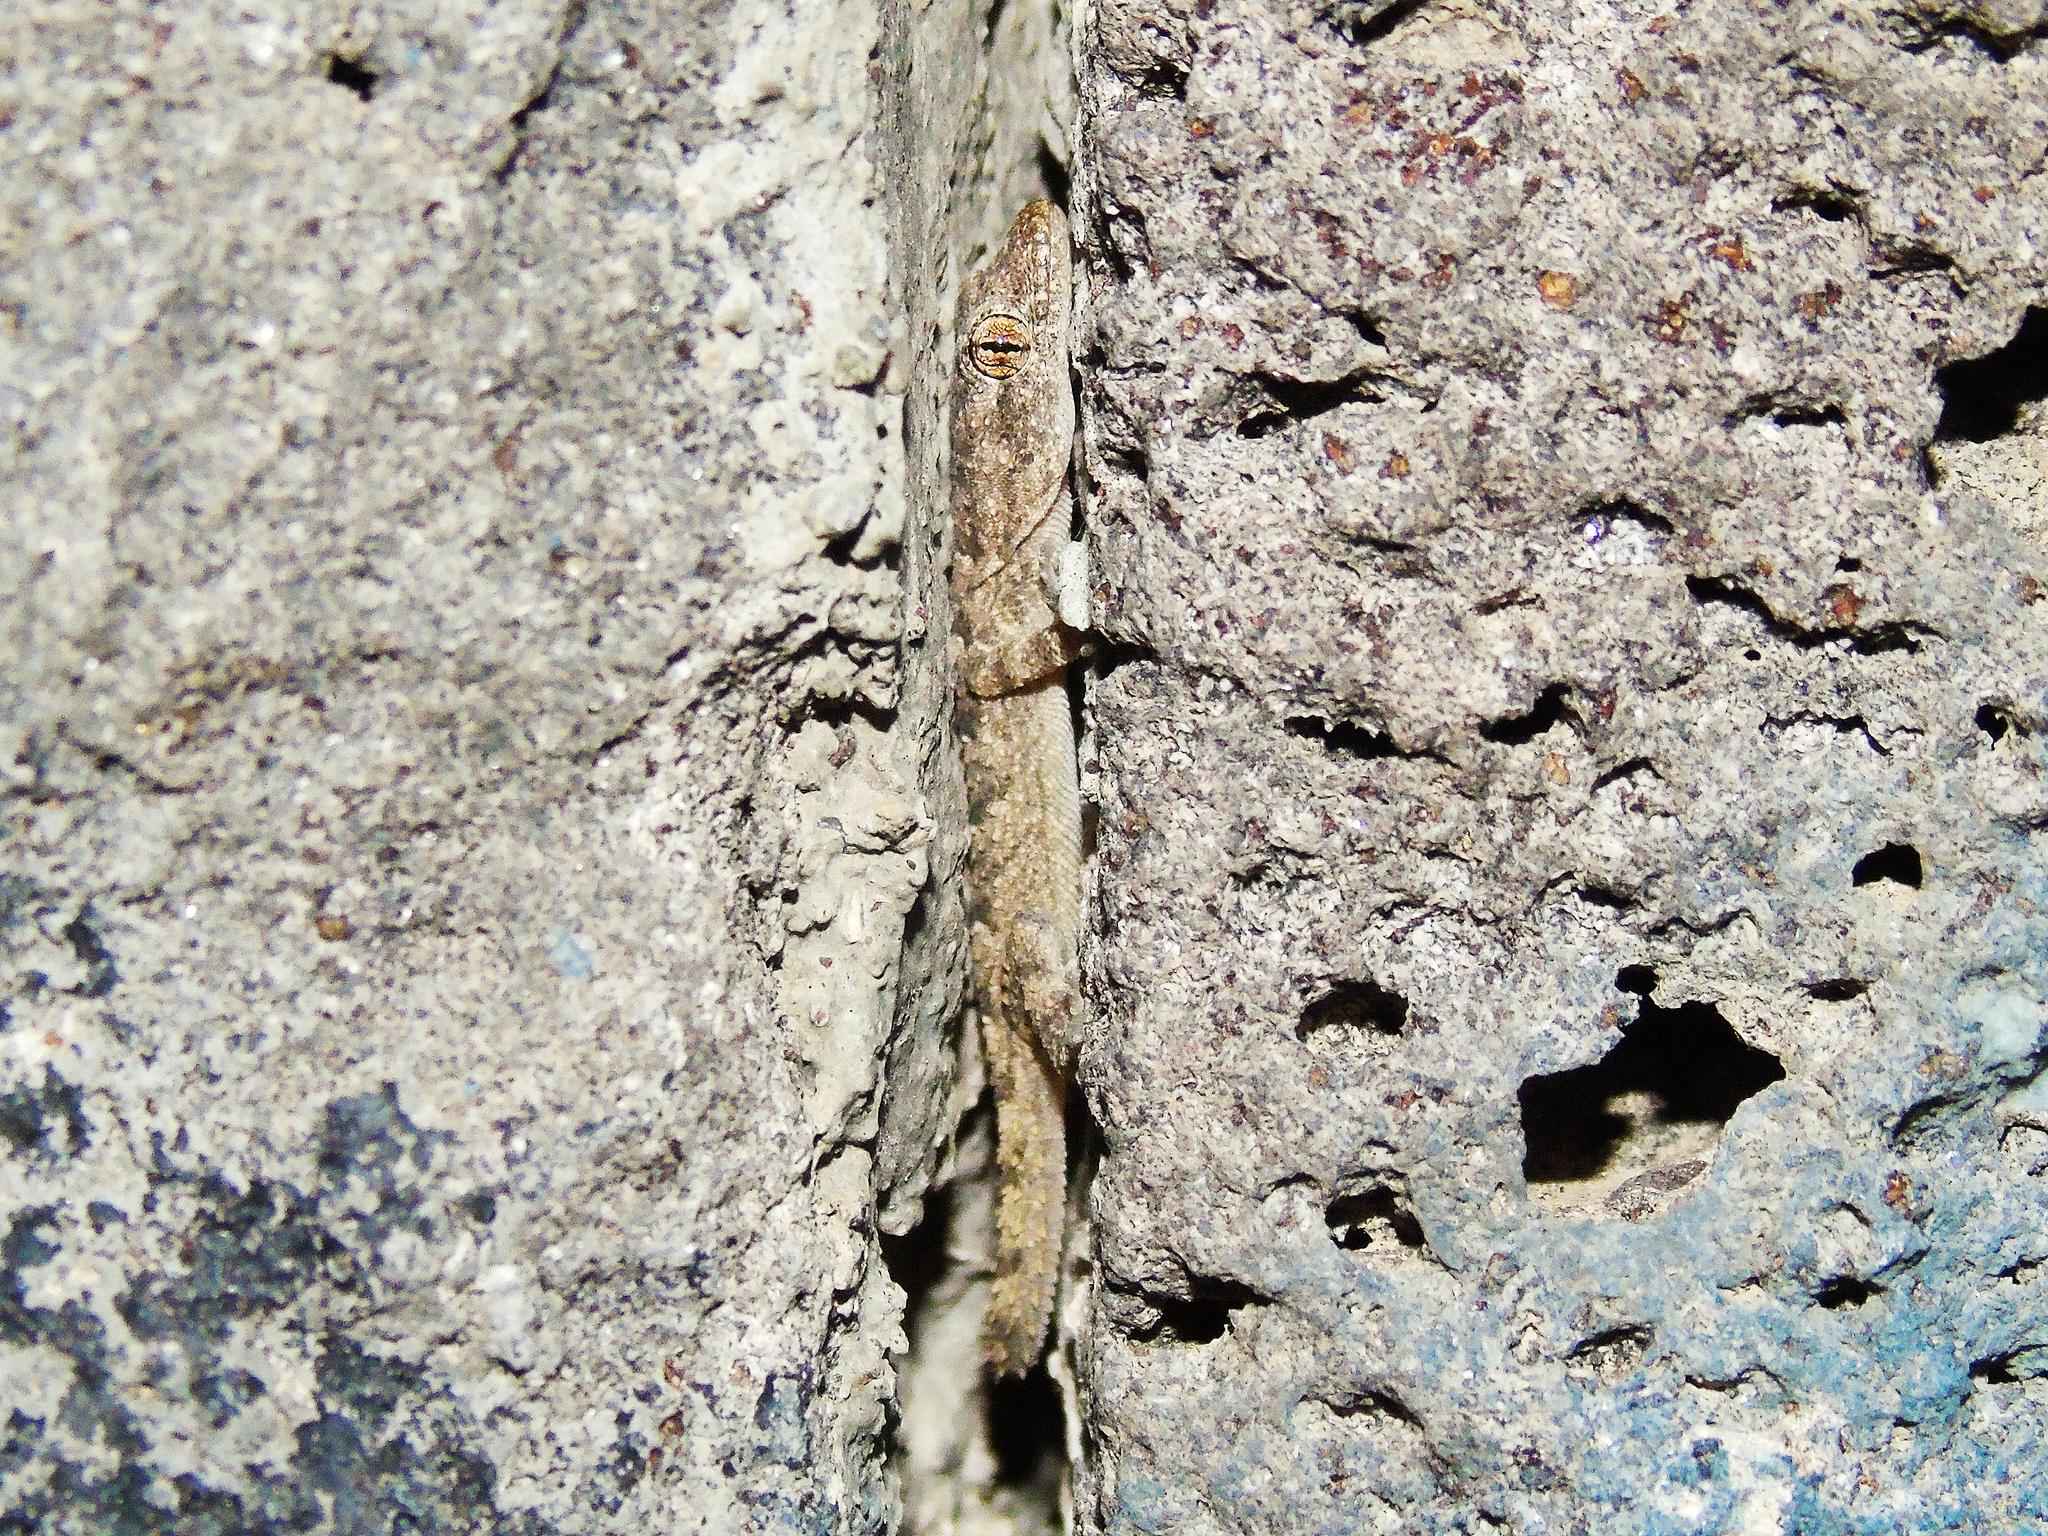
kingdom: Animalia
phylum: Chordata
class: Squamata
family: Gekkonidae
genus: Mediodactylus
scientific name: Mediodactylus heterocercus
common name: Asia minor thin-toed gecko
